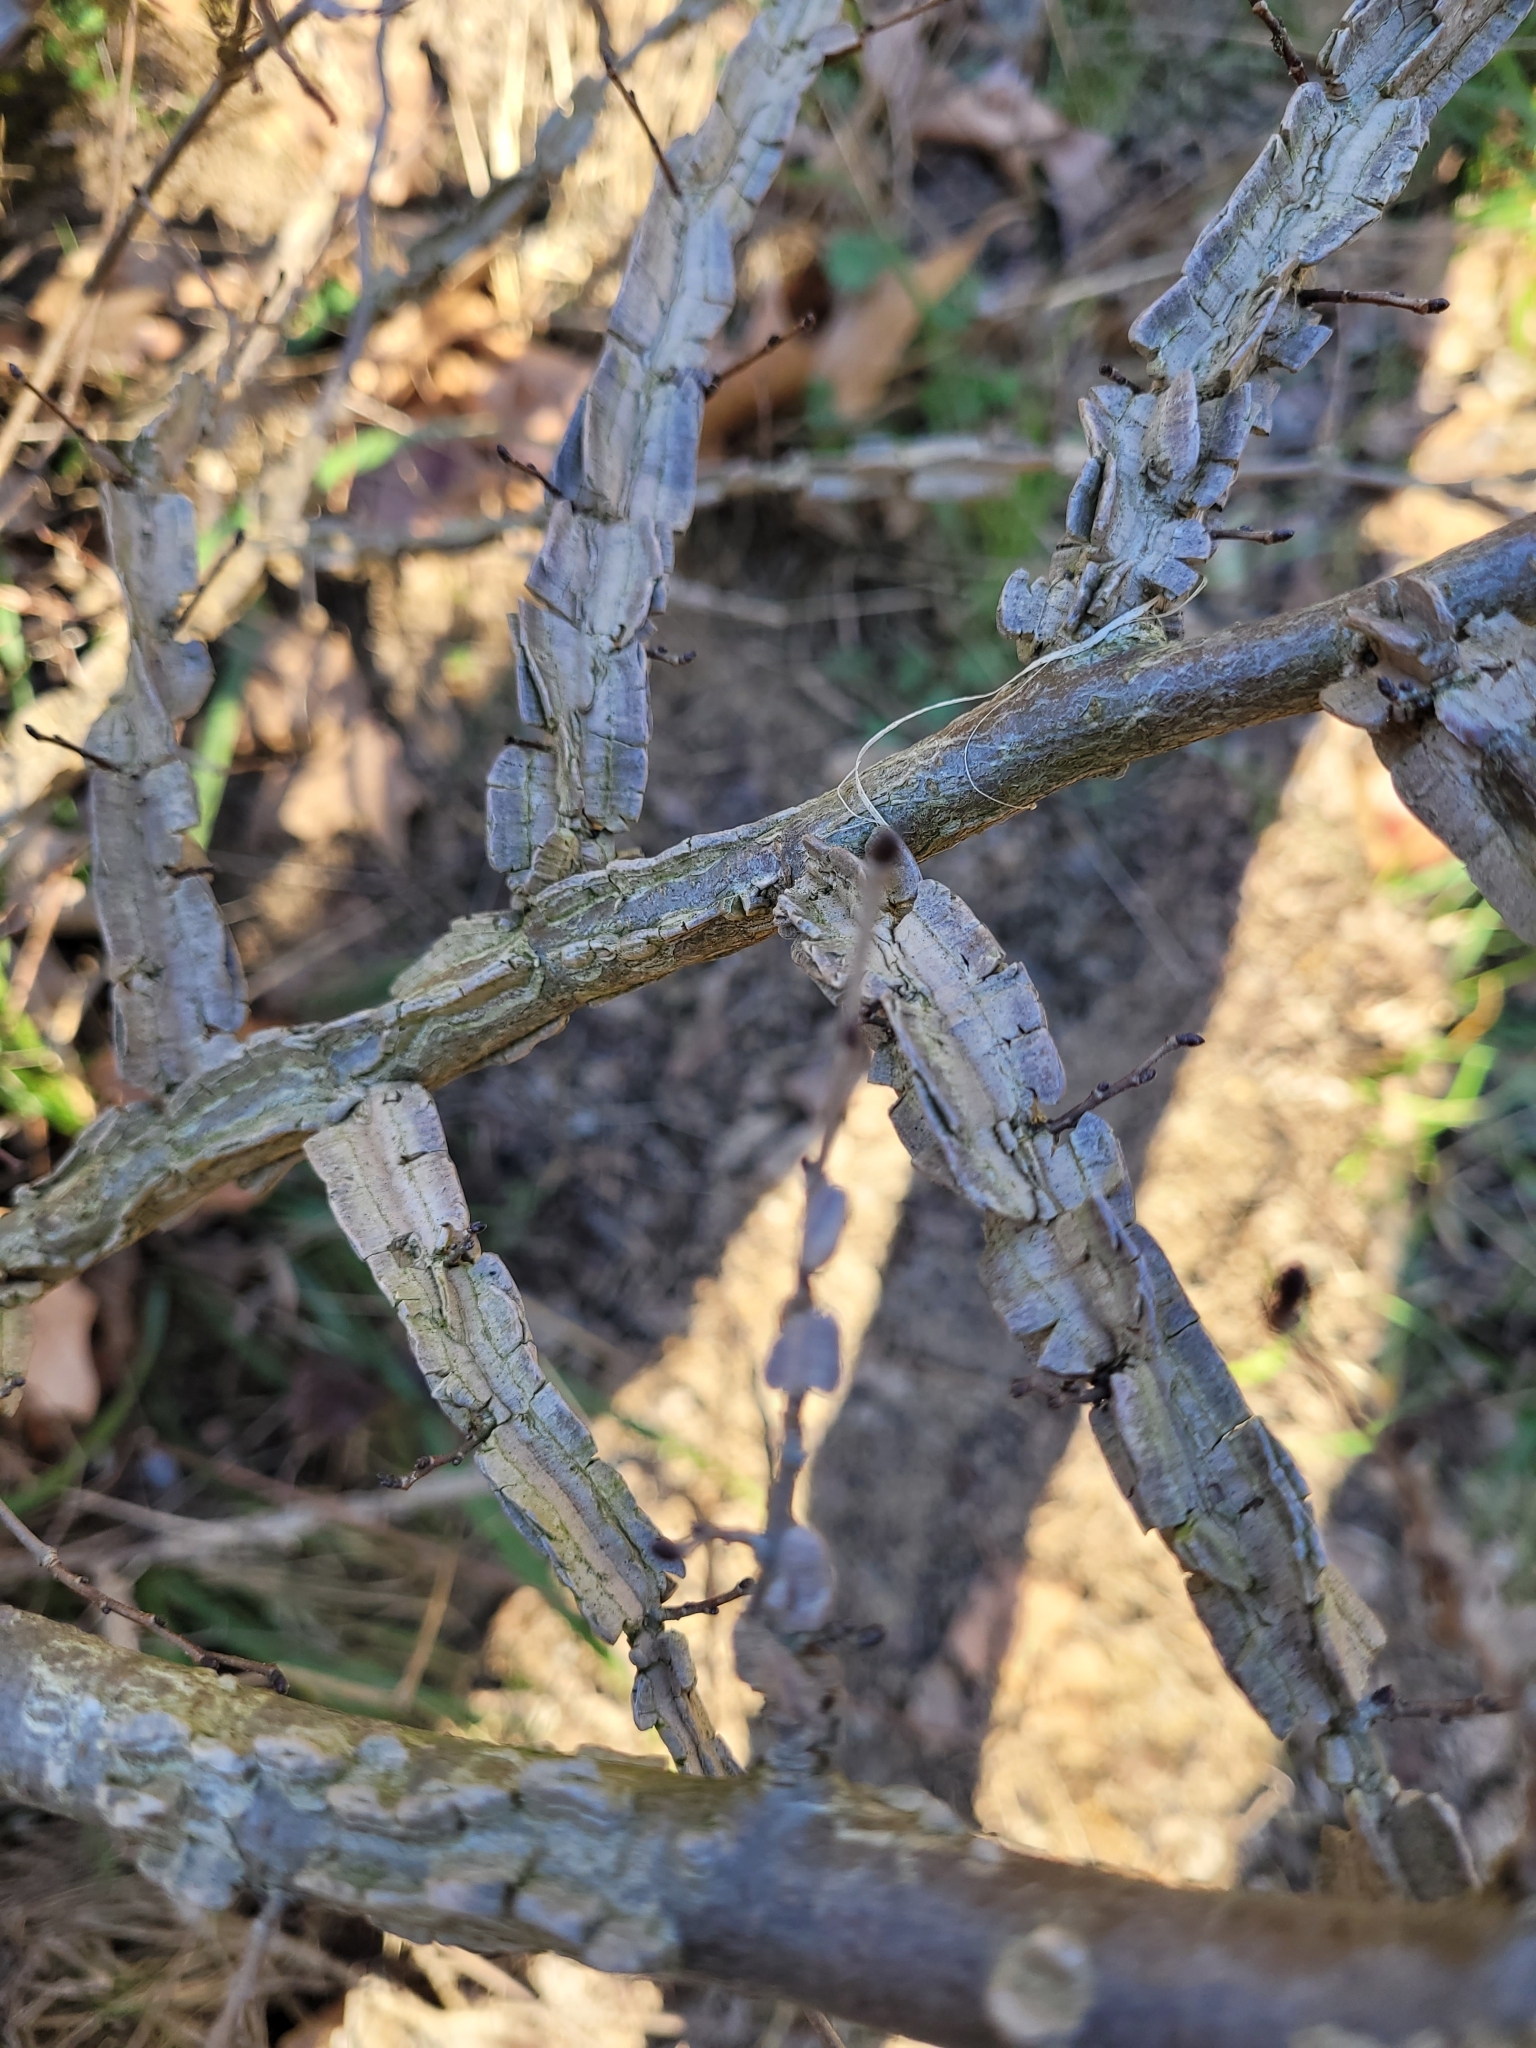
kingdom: Plantae
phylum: Tracheophyta
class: Magnoliopsida
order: Rosales
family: Ulmaceae
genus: Ulmus
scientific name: Ulmus minor
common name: Small-leaved elm
